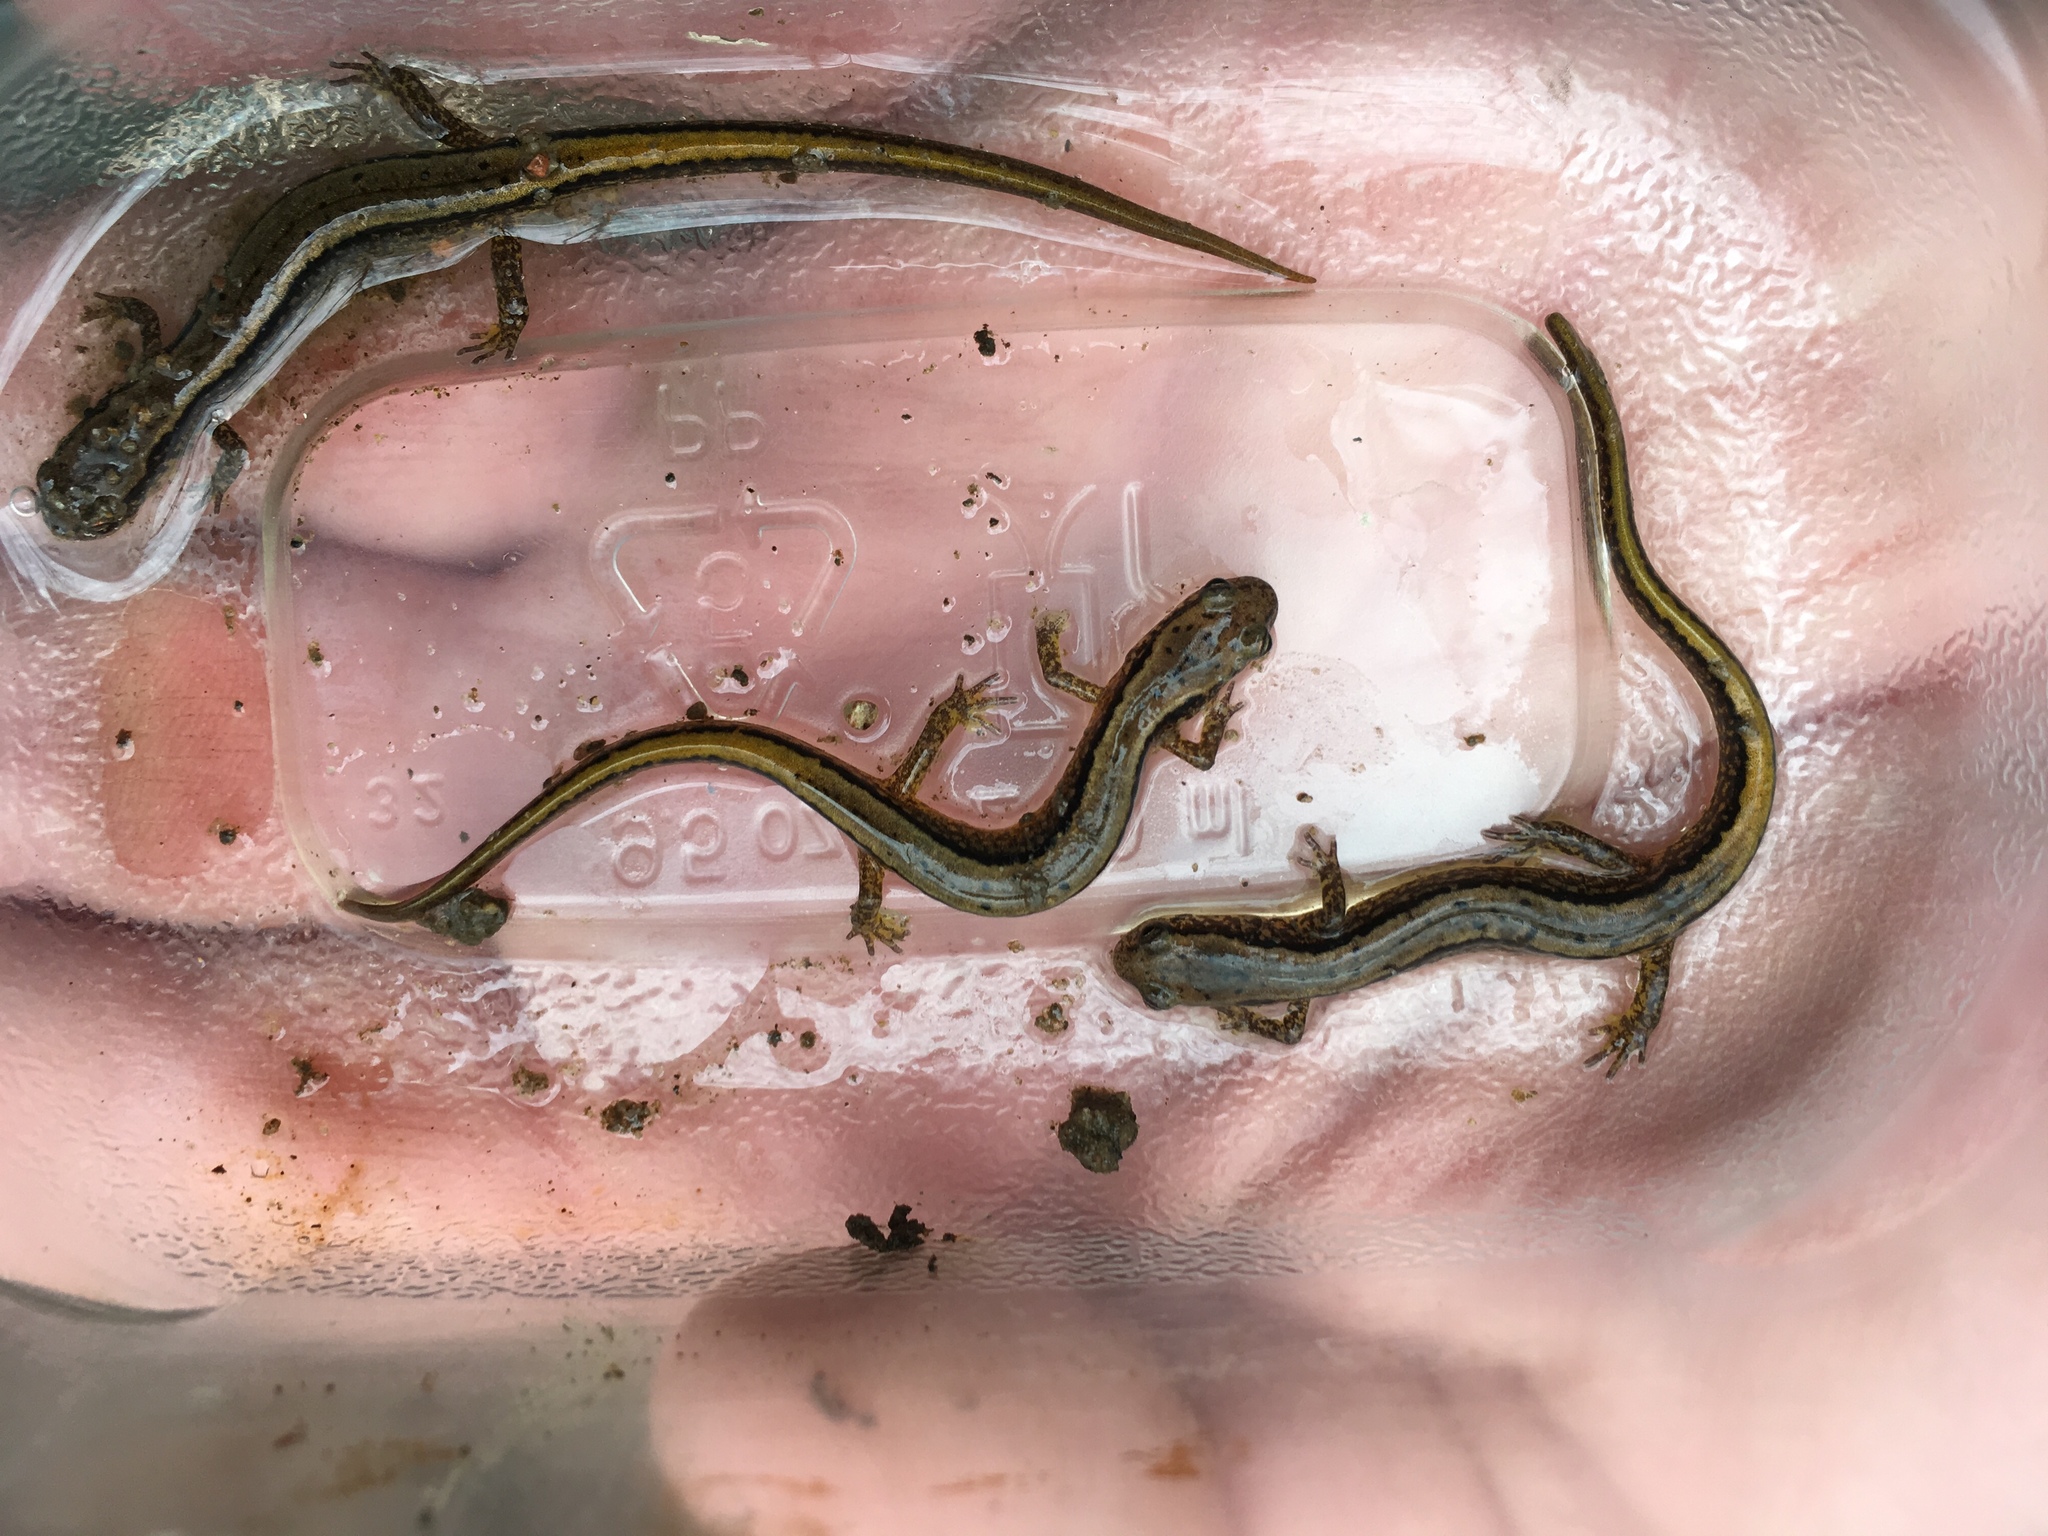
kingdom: Animalia
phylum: Chordata
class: Amphibia
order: Caudata
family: Plethodontidae
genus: Eurycea
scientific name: Eurycea bislineata
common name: Northern two-lined salamander
